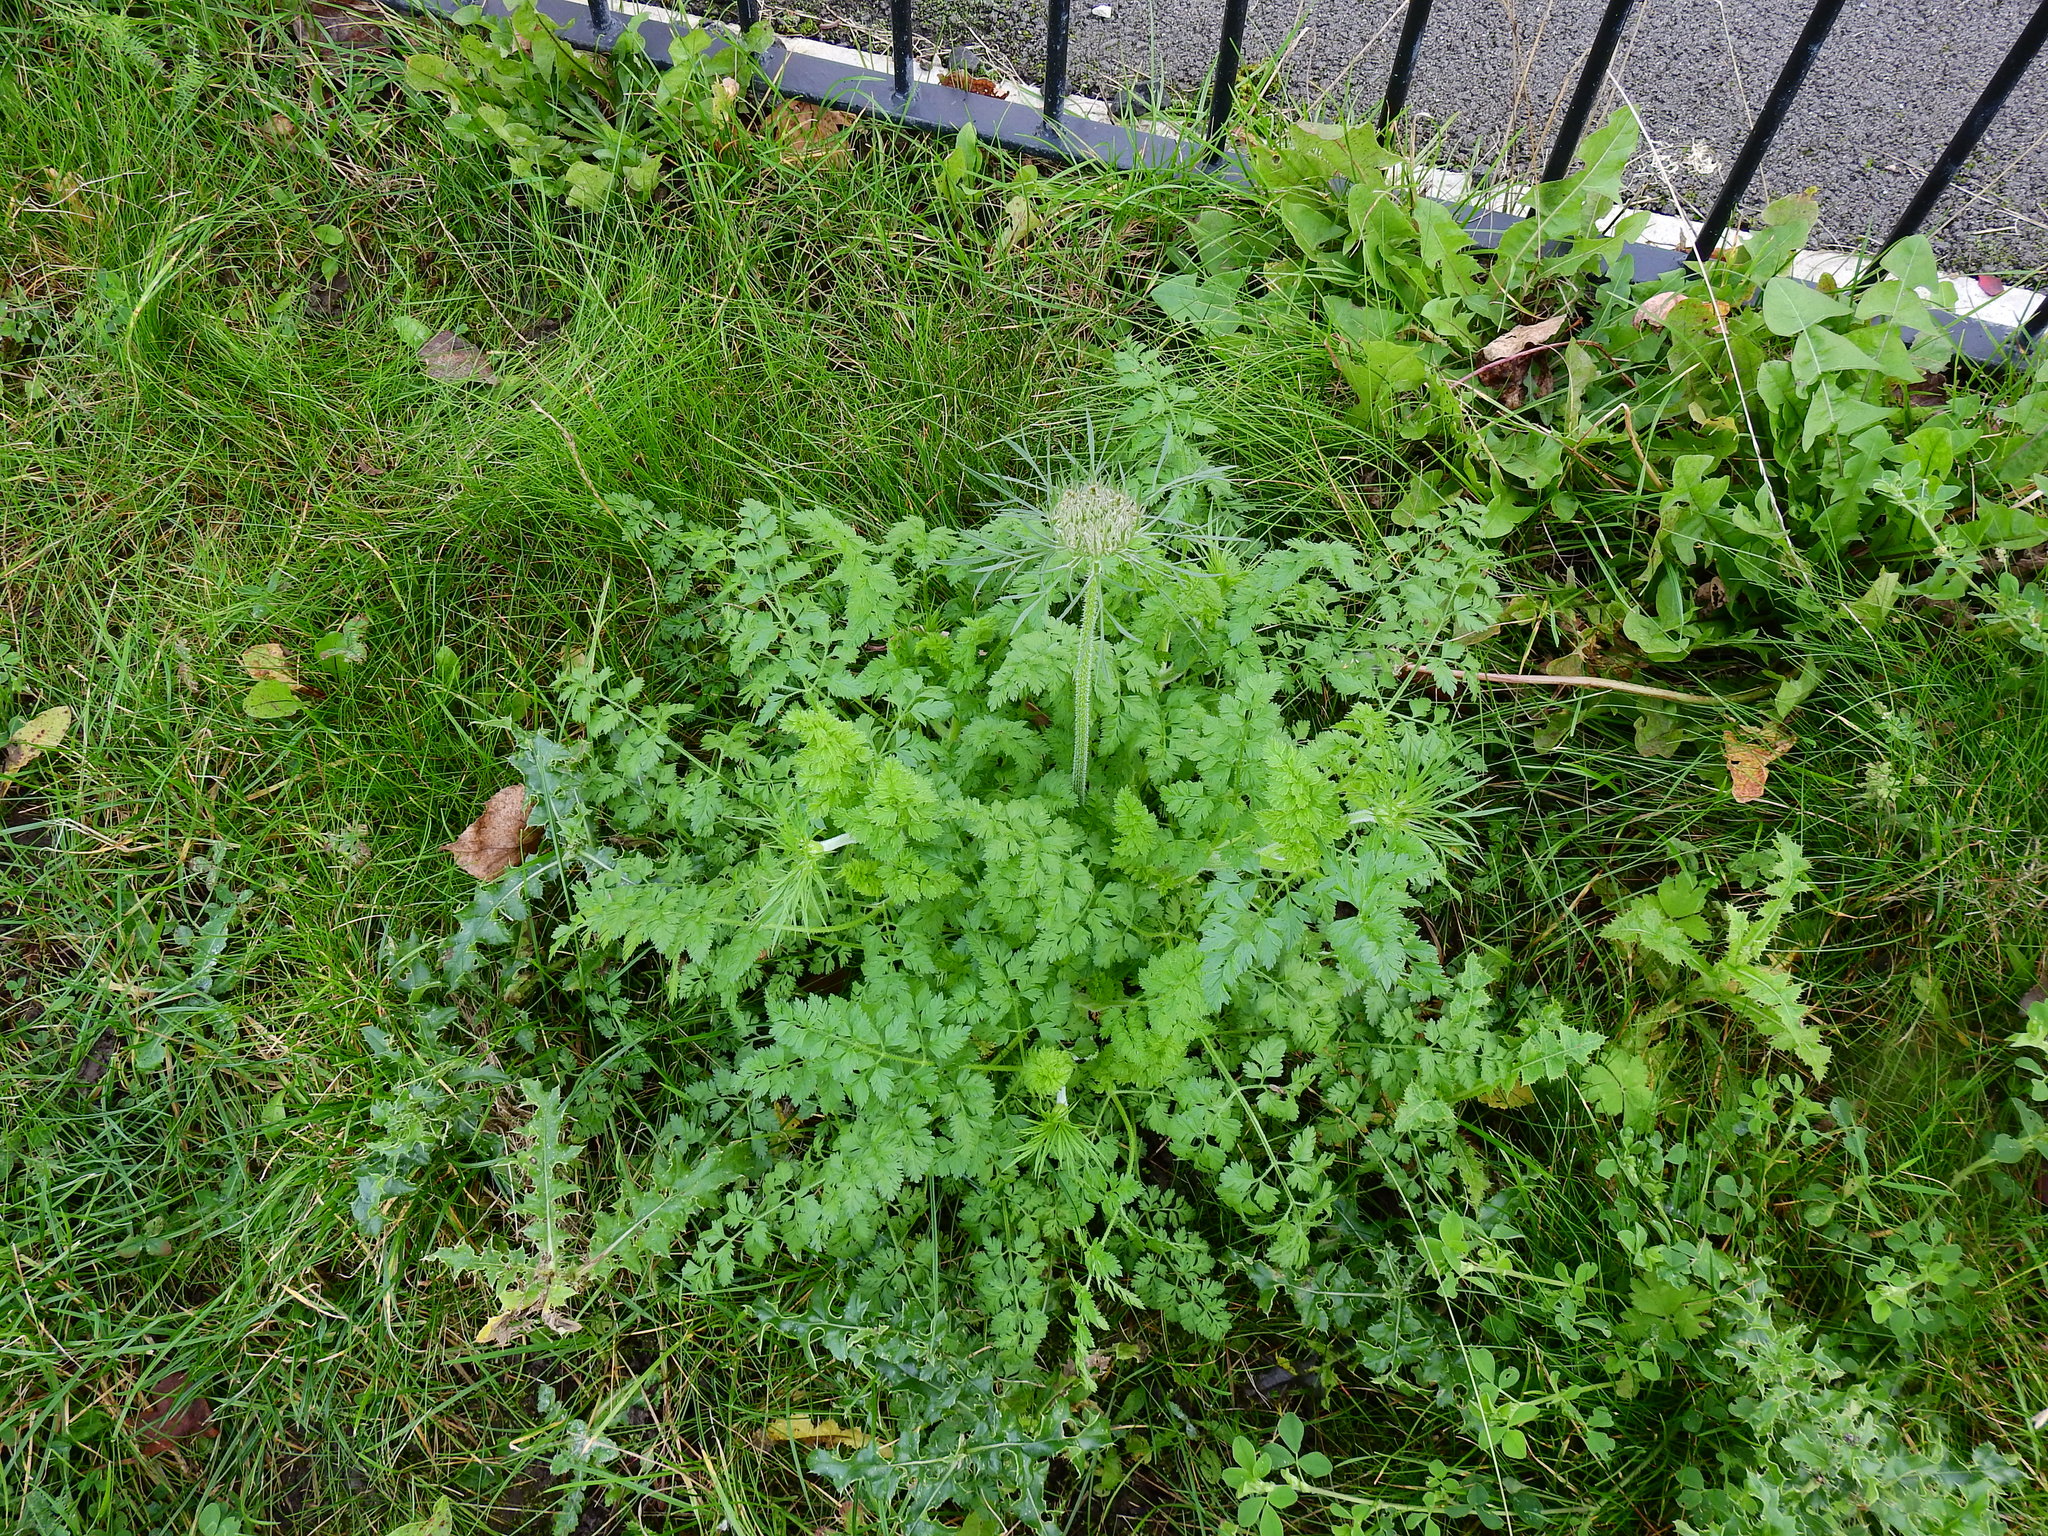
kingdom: Plantae
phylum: Tracheophyta
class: Magnoliopsida
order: Apiales
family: Apiaceae
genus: Daucus
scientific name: Daucus carota
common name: Wild carrot
